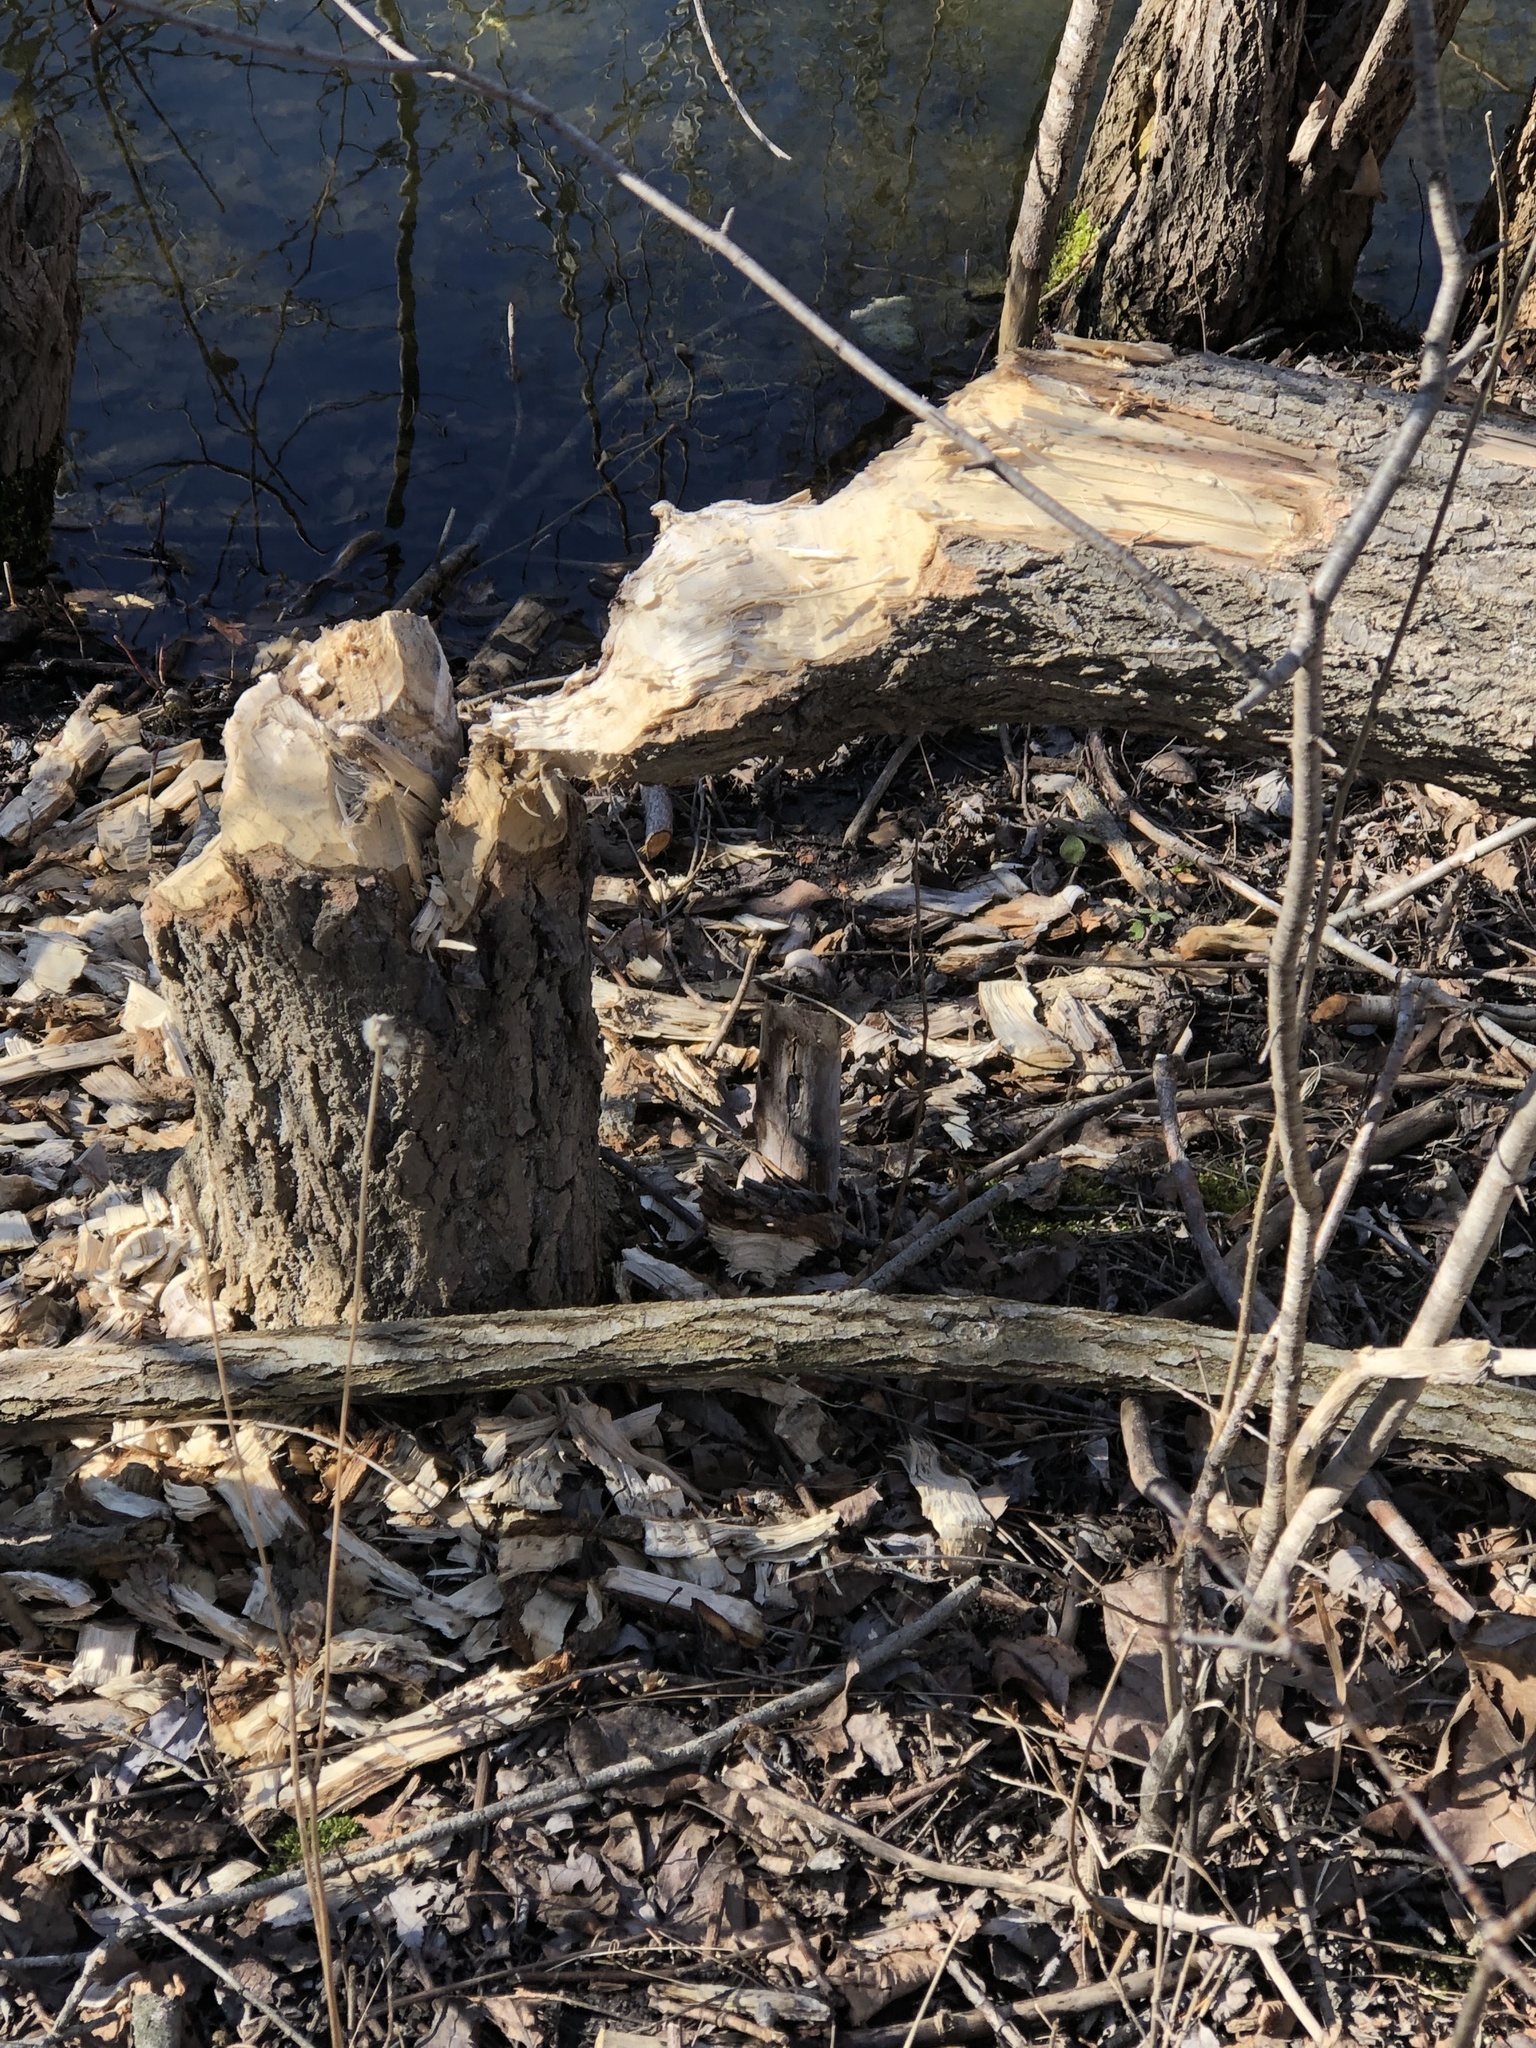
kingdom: Animalia
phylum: Chordata
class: Mammalia
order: Rodentia
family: Castoridae
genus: Castor
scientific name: Castor canadensis
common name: American beaver
